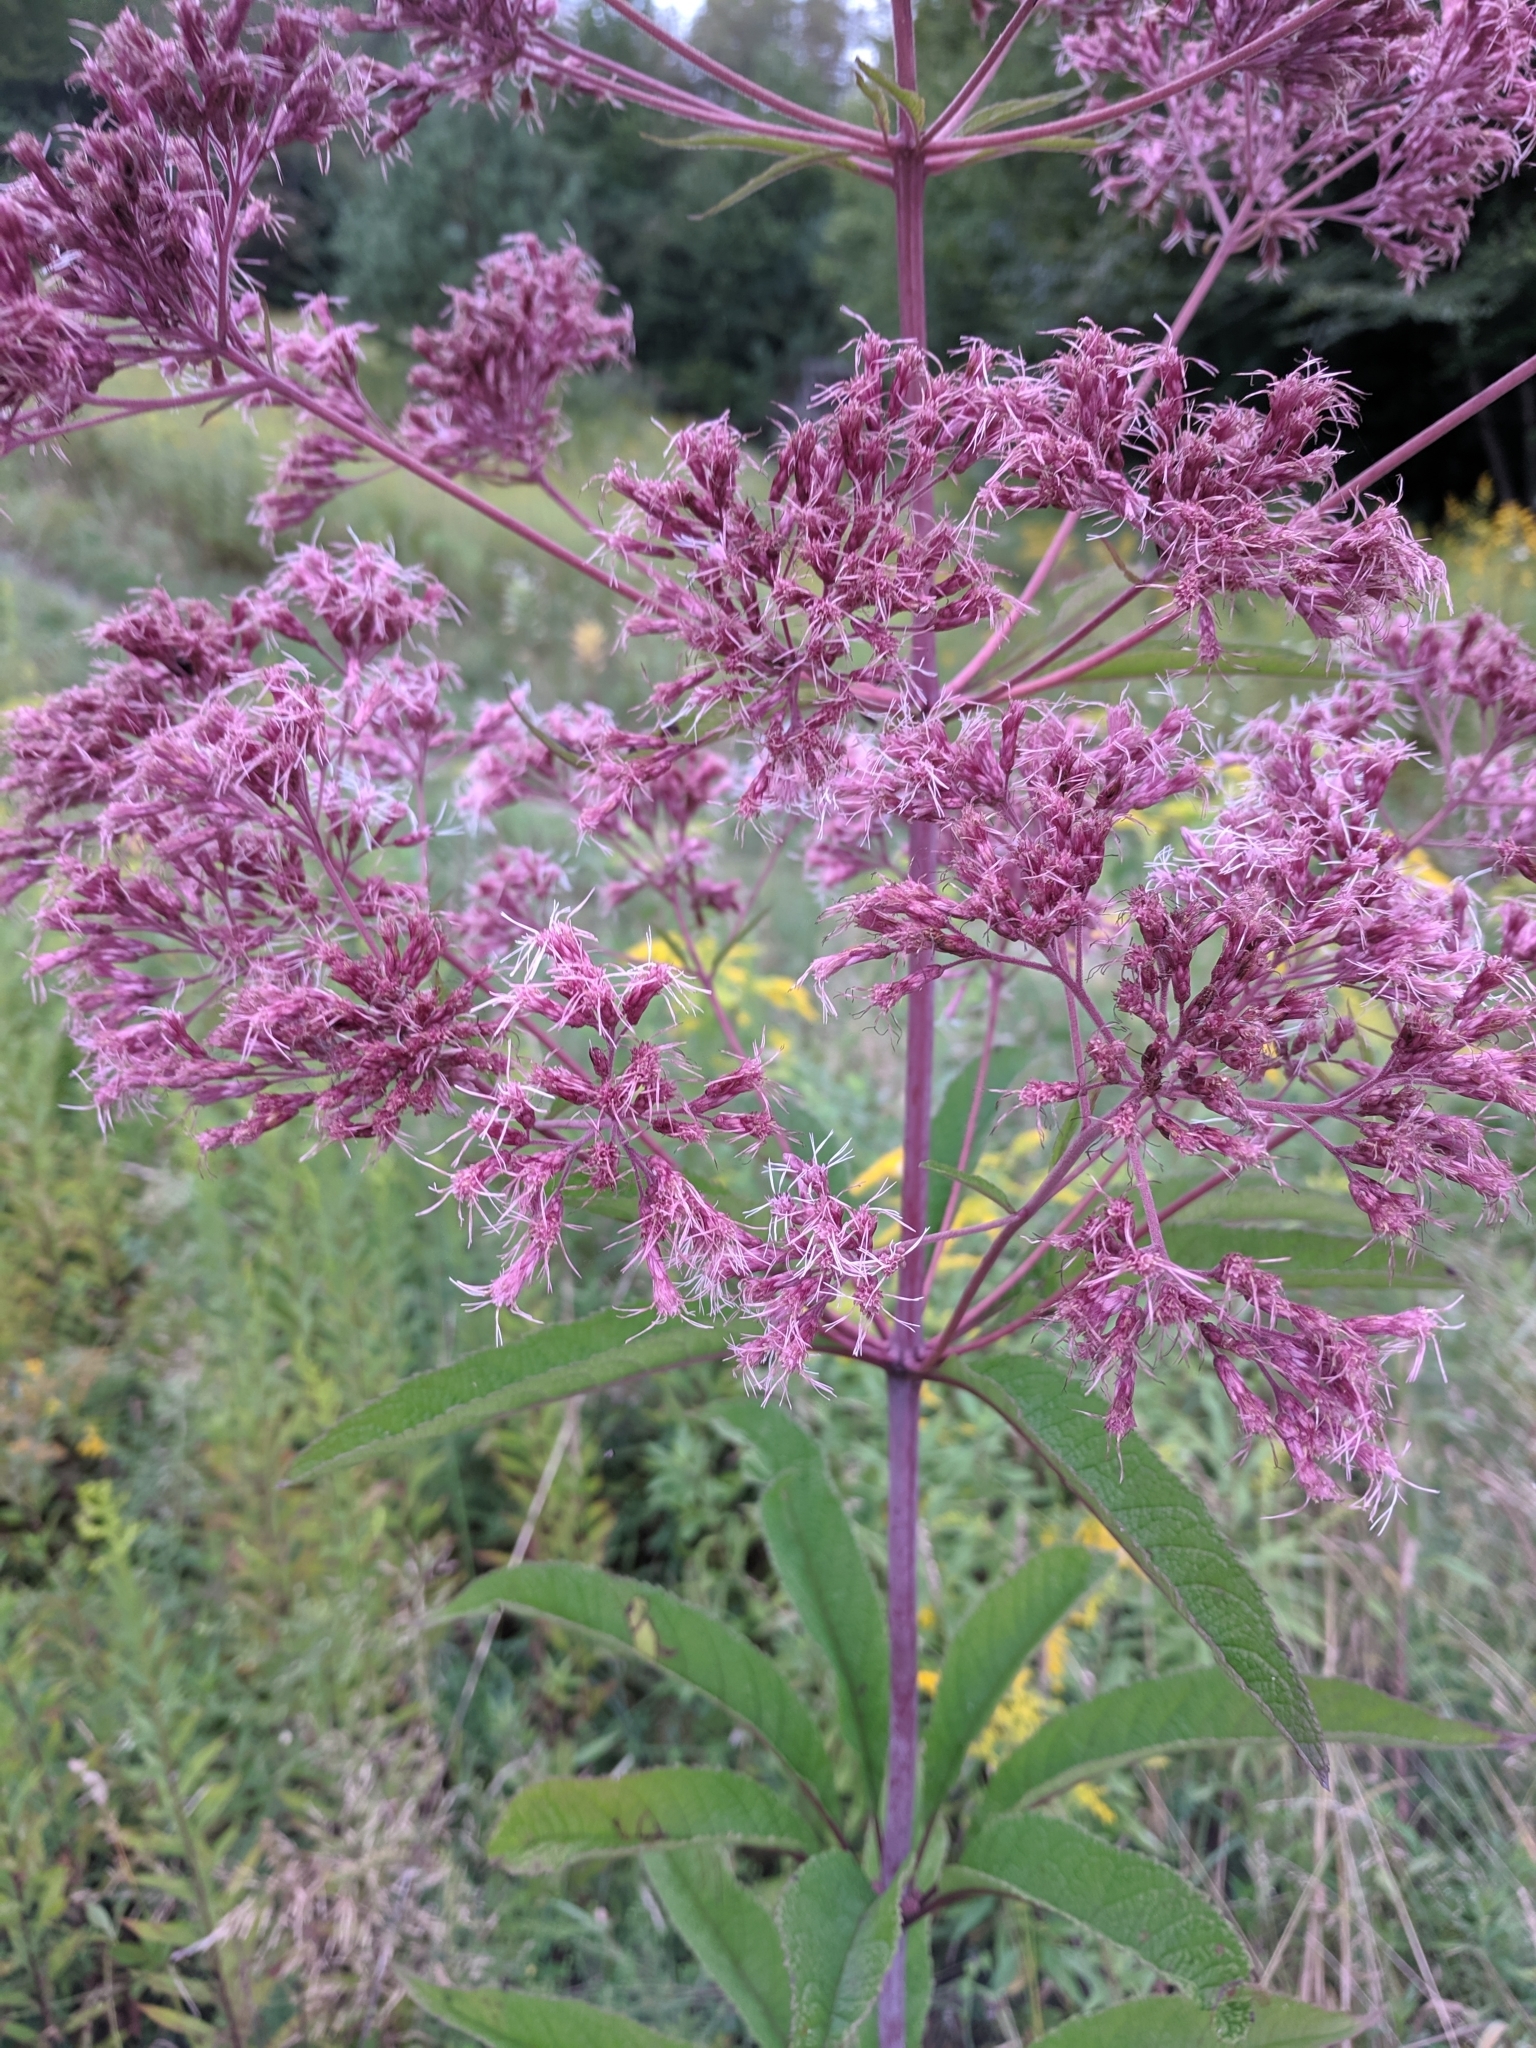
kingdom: Plantae
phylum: Tracheophyta
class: Magnoliopsida
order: Asterales
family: Asteraceae
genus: Eutrochium
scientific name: Eutrochium fistulosum
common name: Trumpetweed
